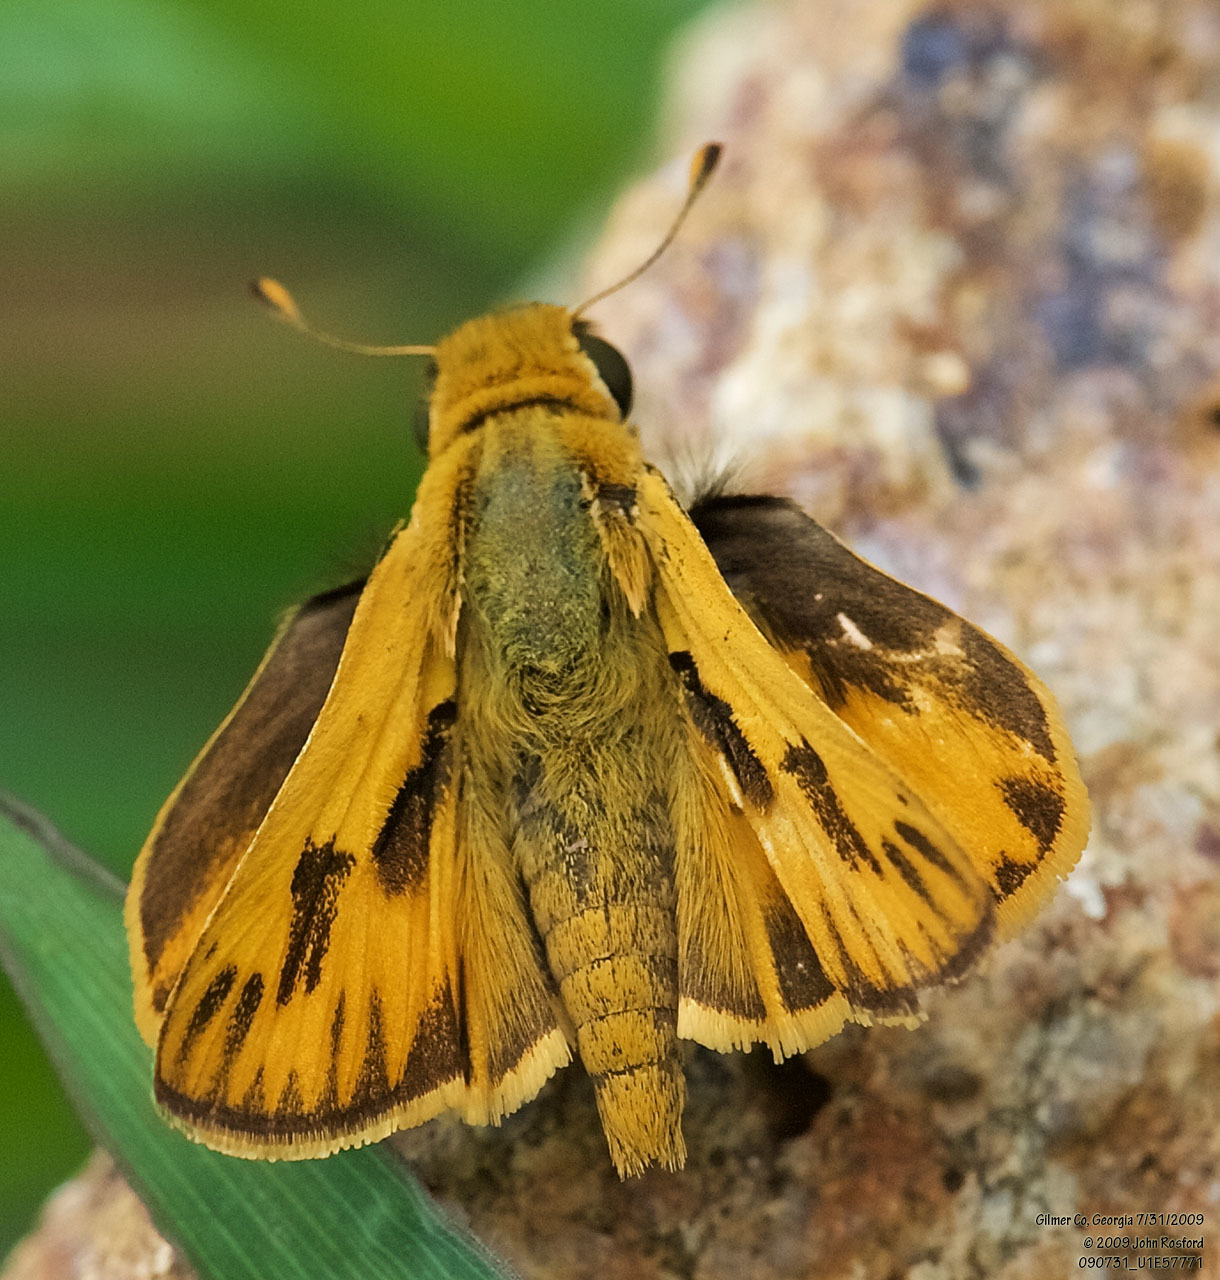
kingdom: Animalia
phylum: Arthropoda
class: Insecta
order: Lepidoptera
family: Hesperiidae
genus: Hylephila
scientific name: Hylephila phyleus
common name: Fiery skipper
